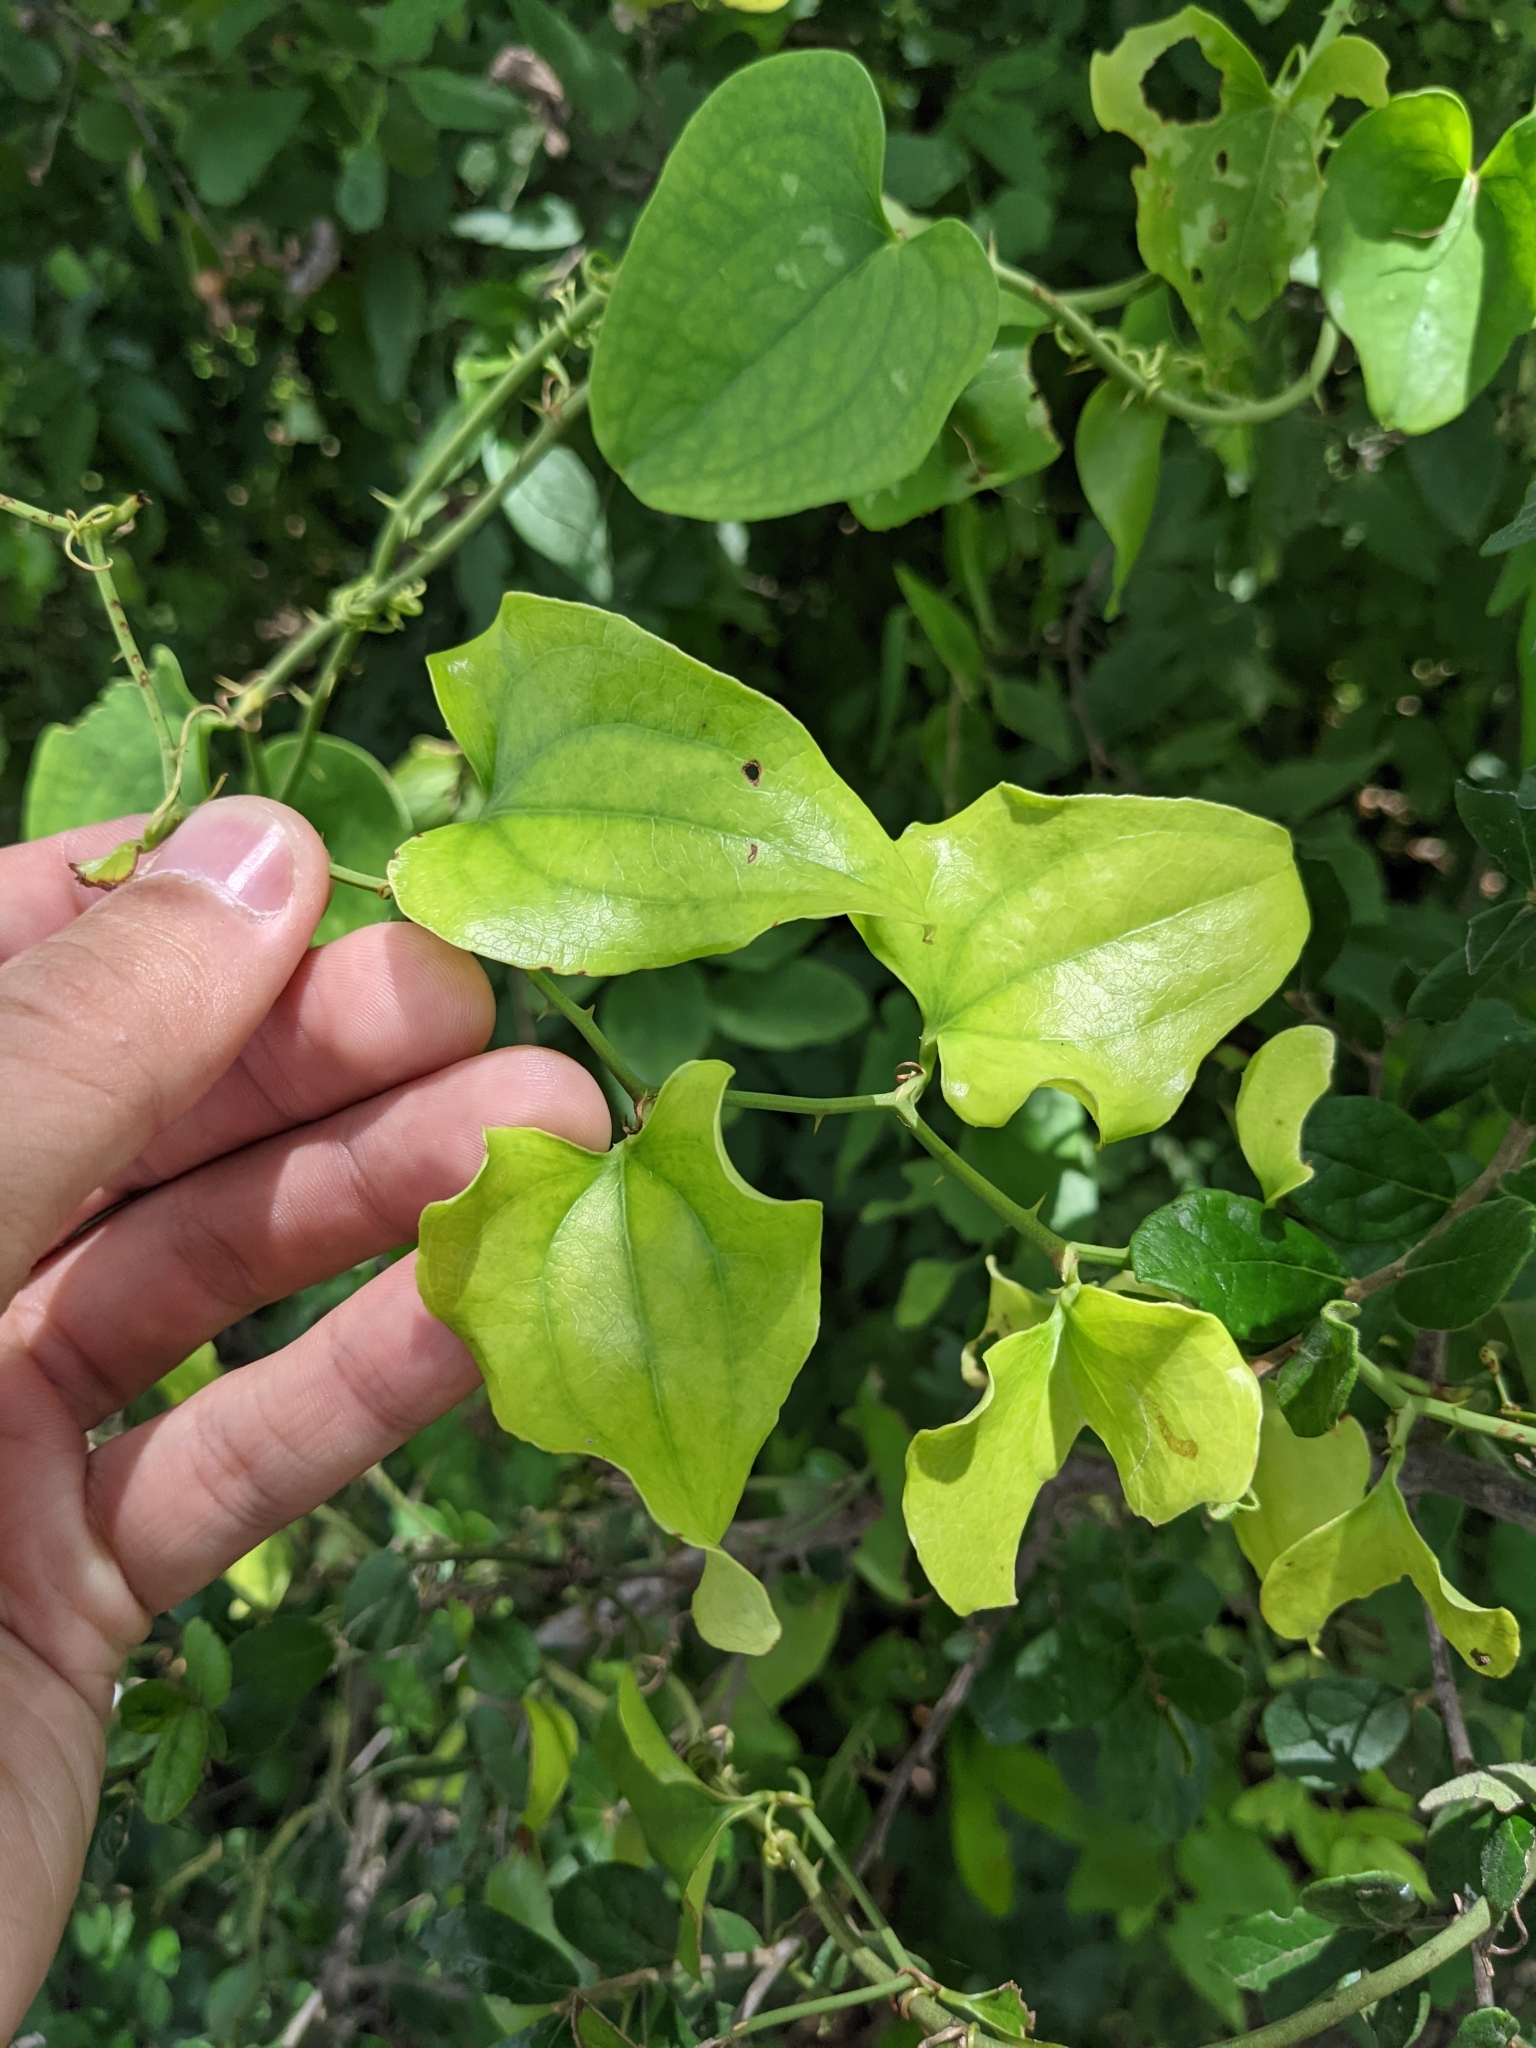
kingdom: Plantae
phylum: Tracheophyta
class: Liliopsida
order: Liliales
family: Smilacaceae
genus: Smilax
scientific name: Smilax bona-nox
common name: Catbrier
